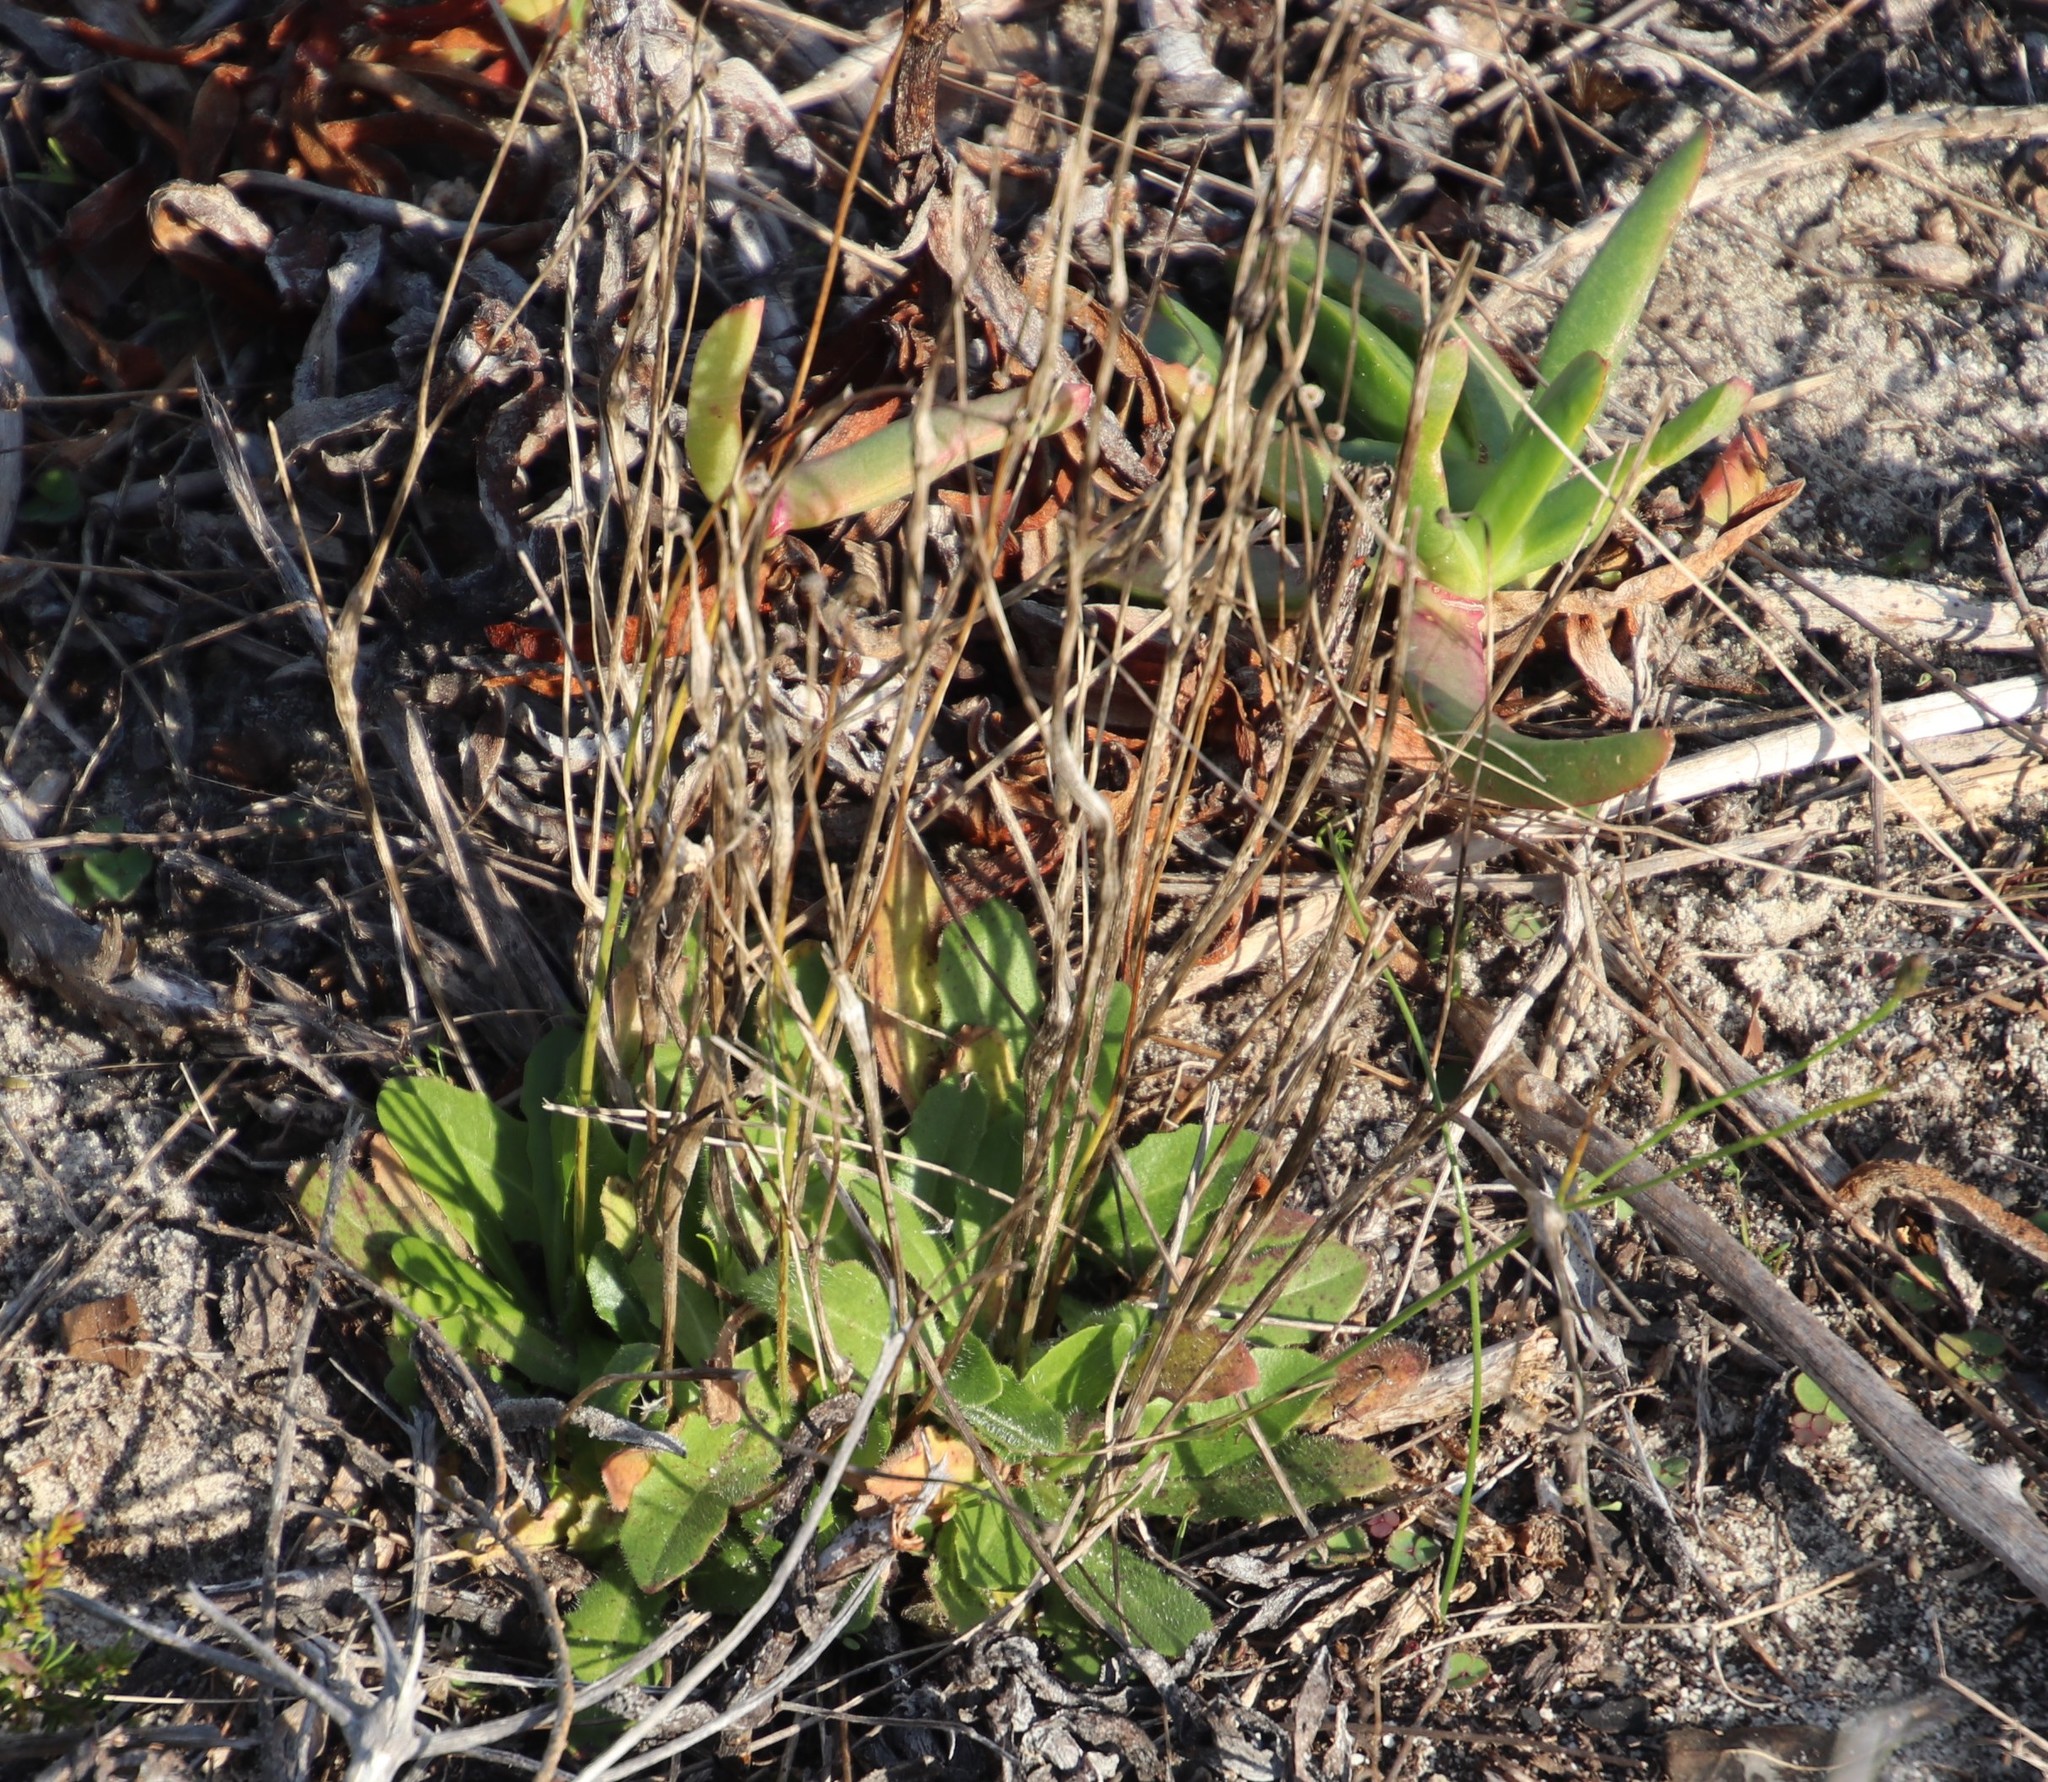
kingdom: Plantae
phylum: Tracheophyta
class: Magnoliopsida
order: Asterales
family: Asteraceae
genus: Hypochaeris
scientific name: Hypochaeris radicata
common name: Flatweed
